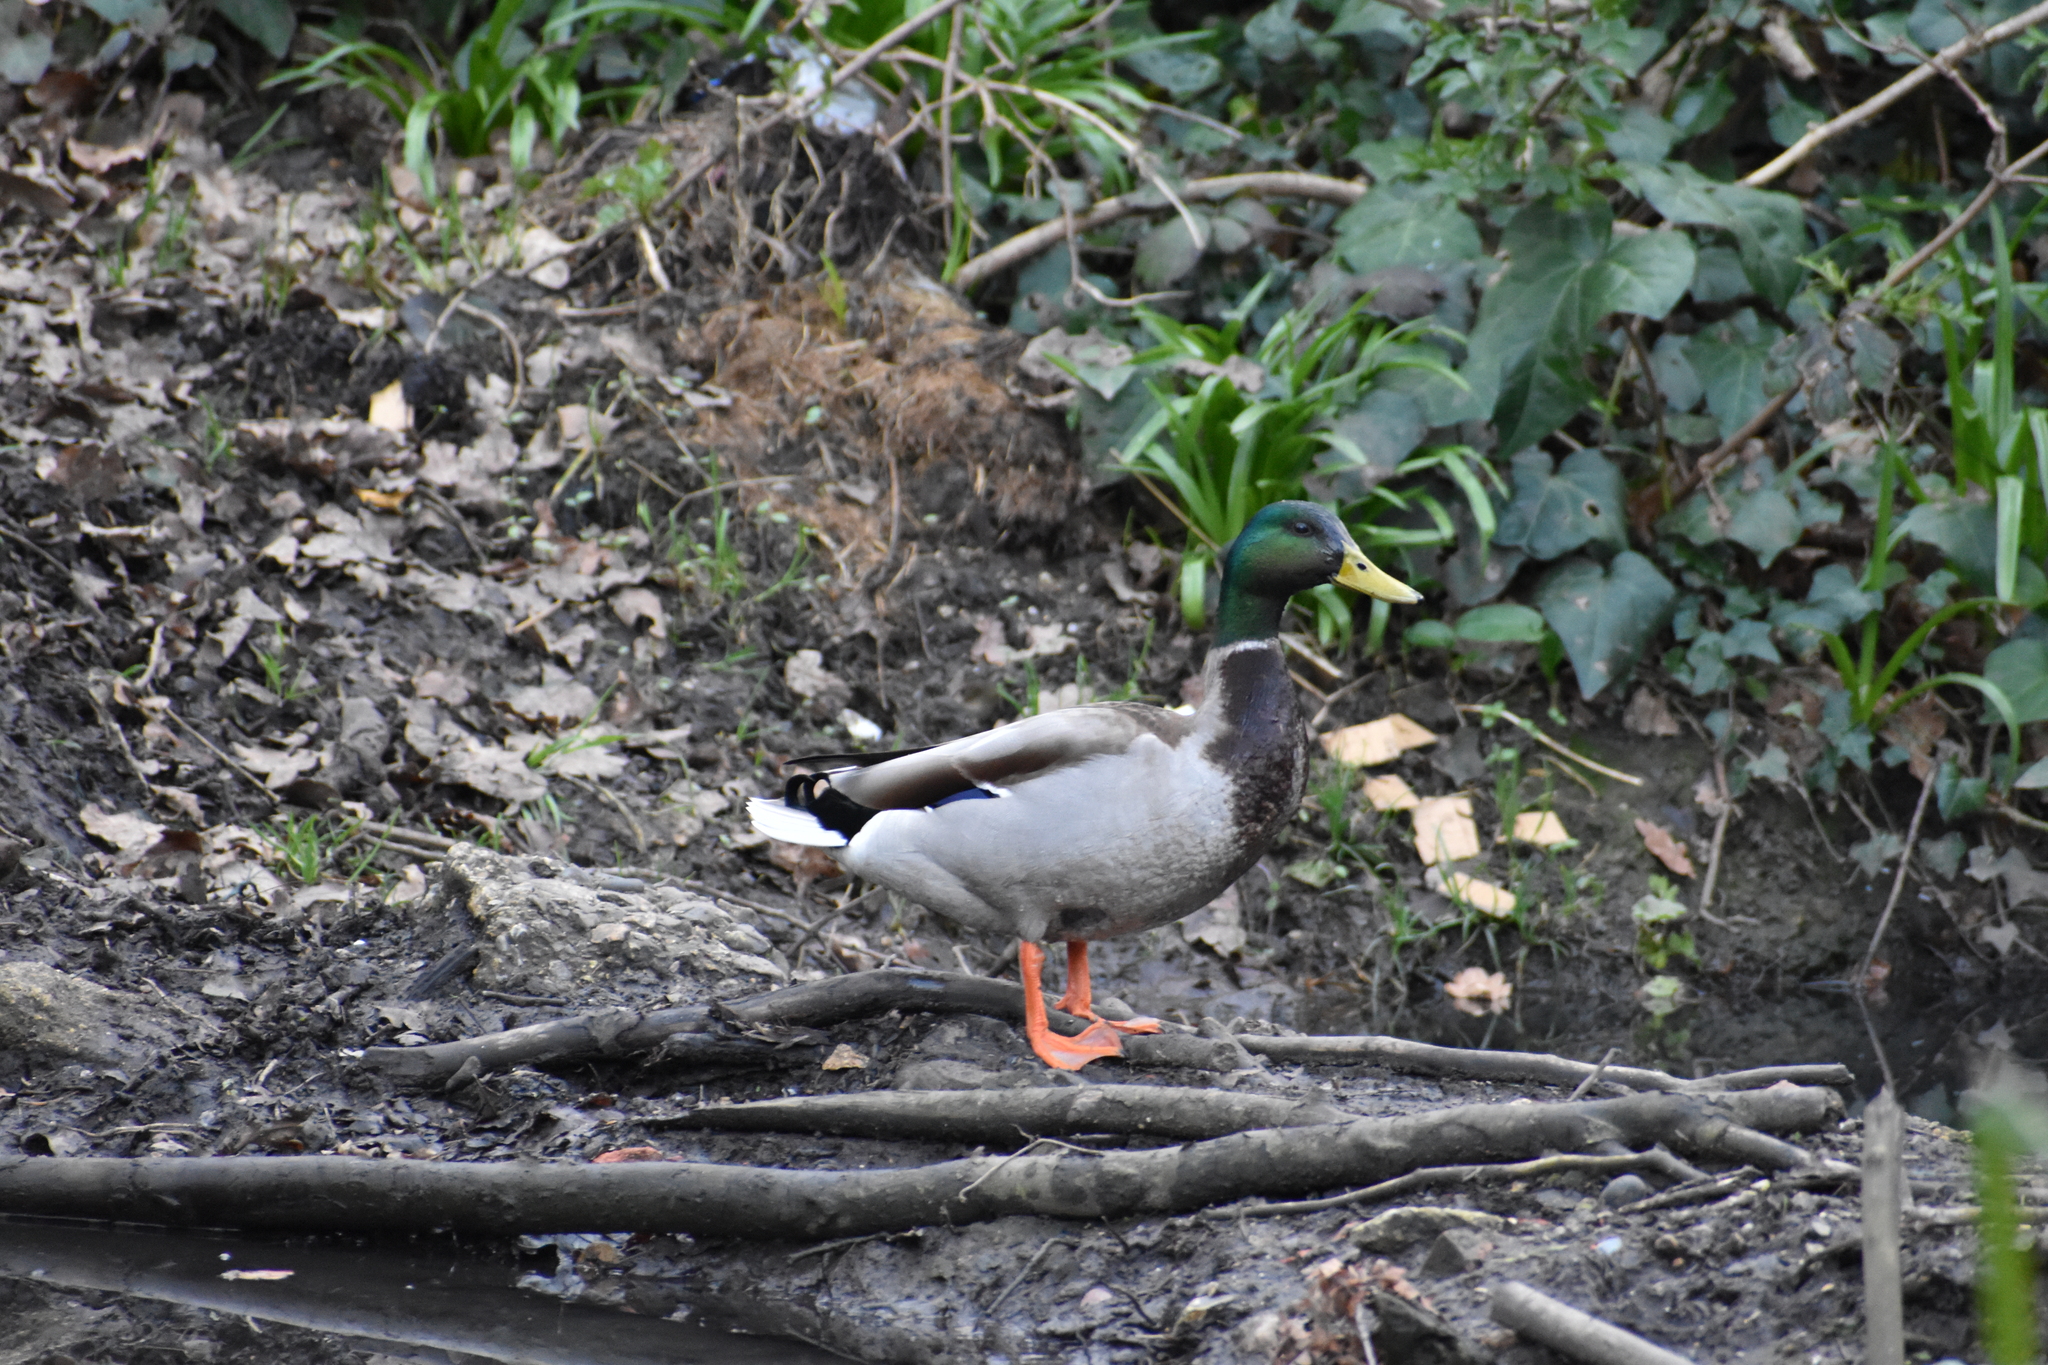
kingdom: Animalia
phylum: Chordata
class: Aves
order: Anseriformes
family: Anatidae
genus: Anas
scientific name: Anas platyrhynchos
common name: Mallard
